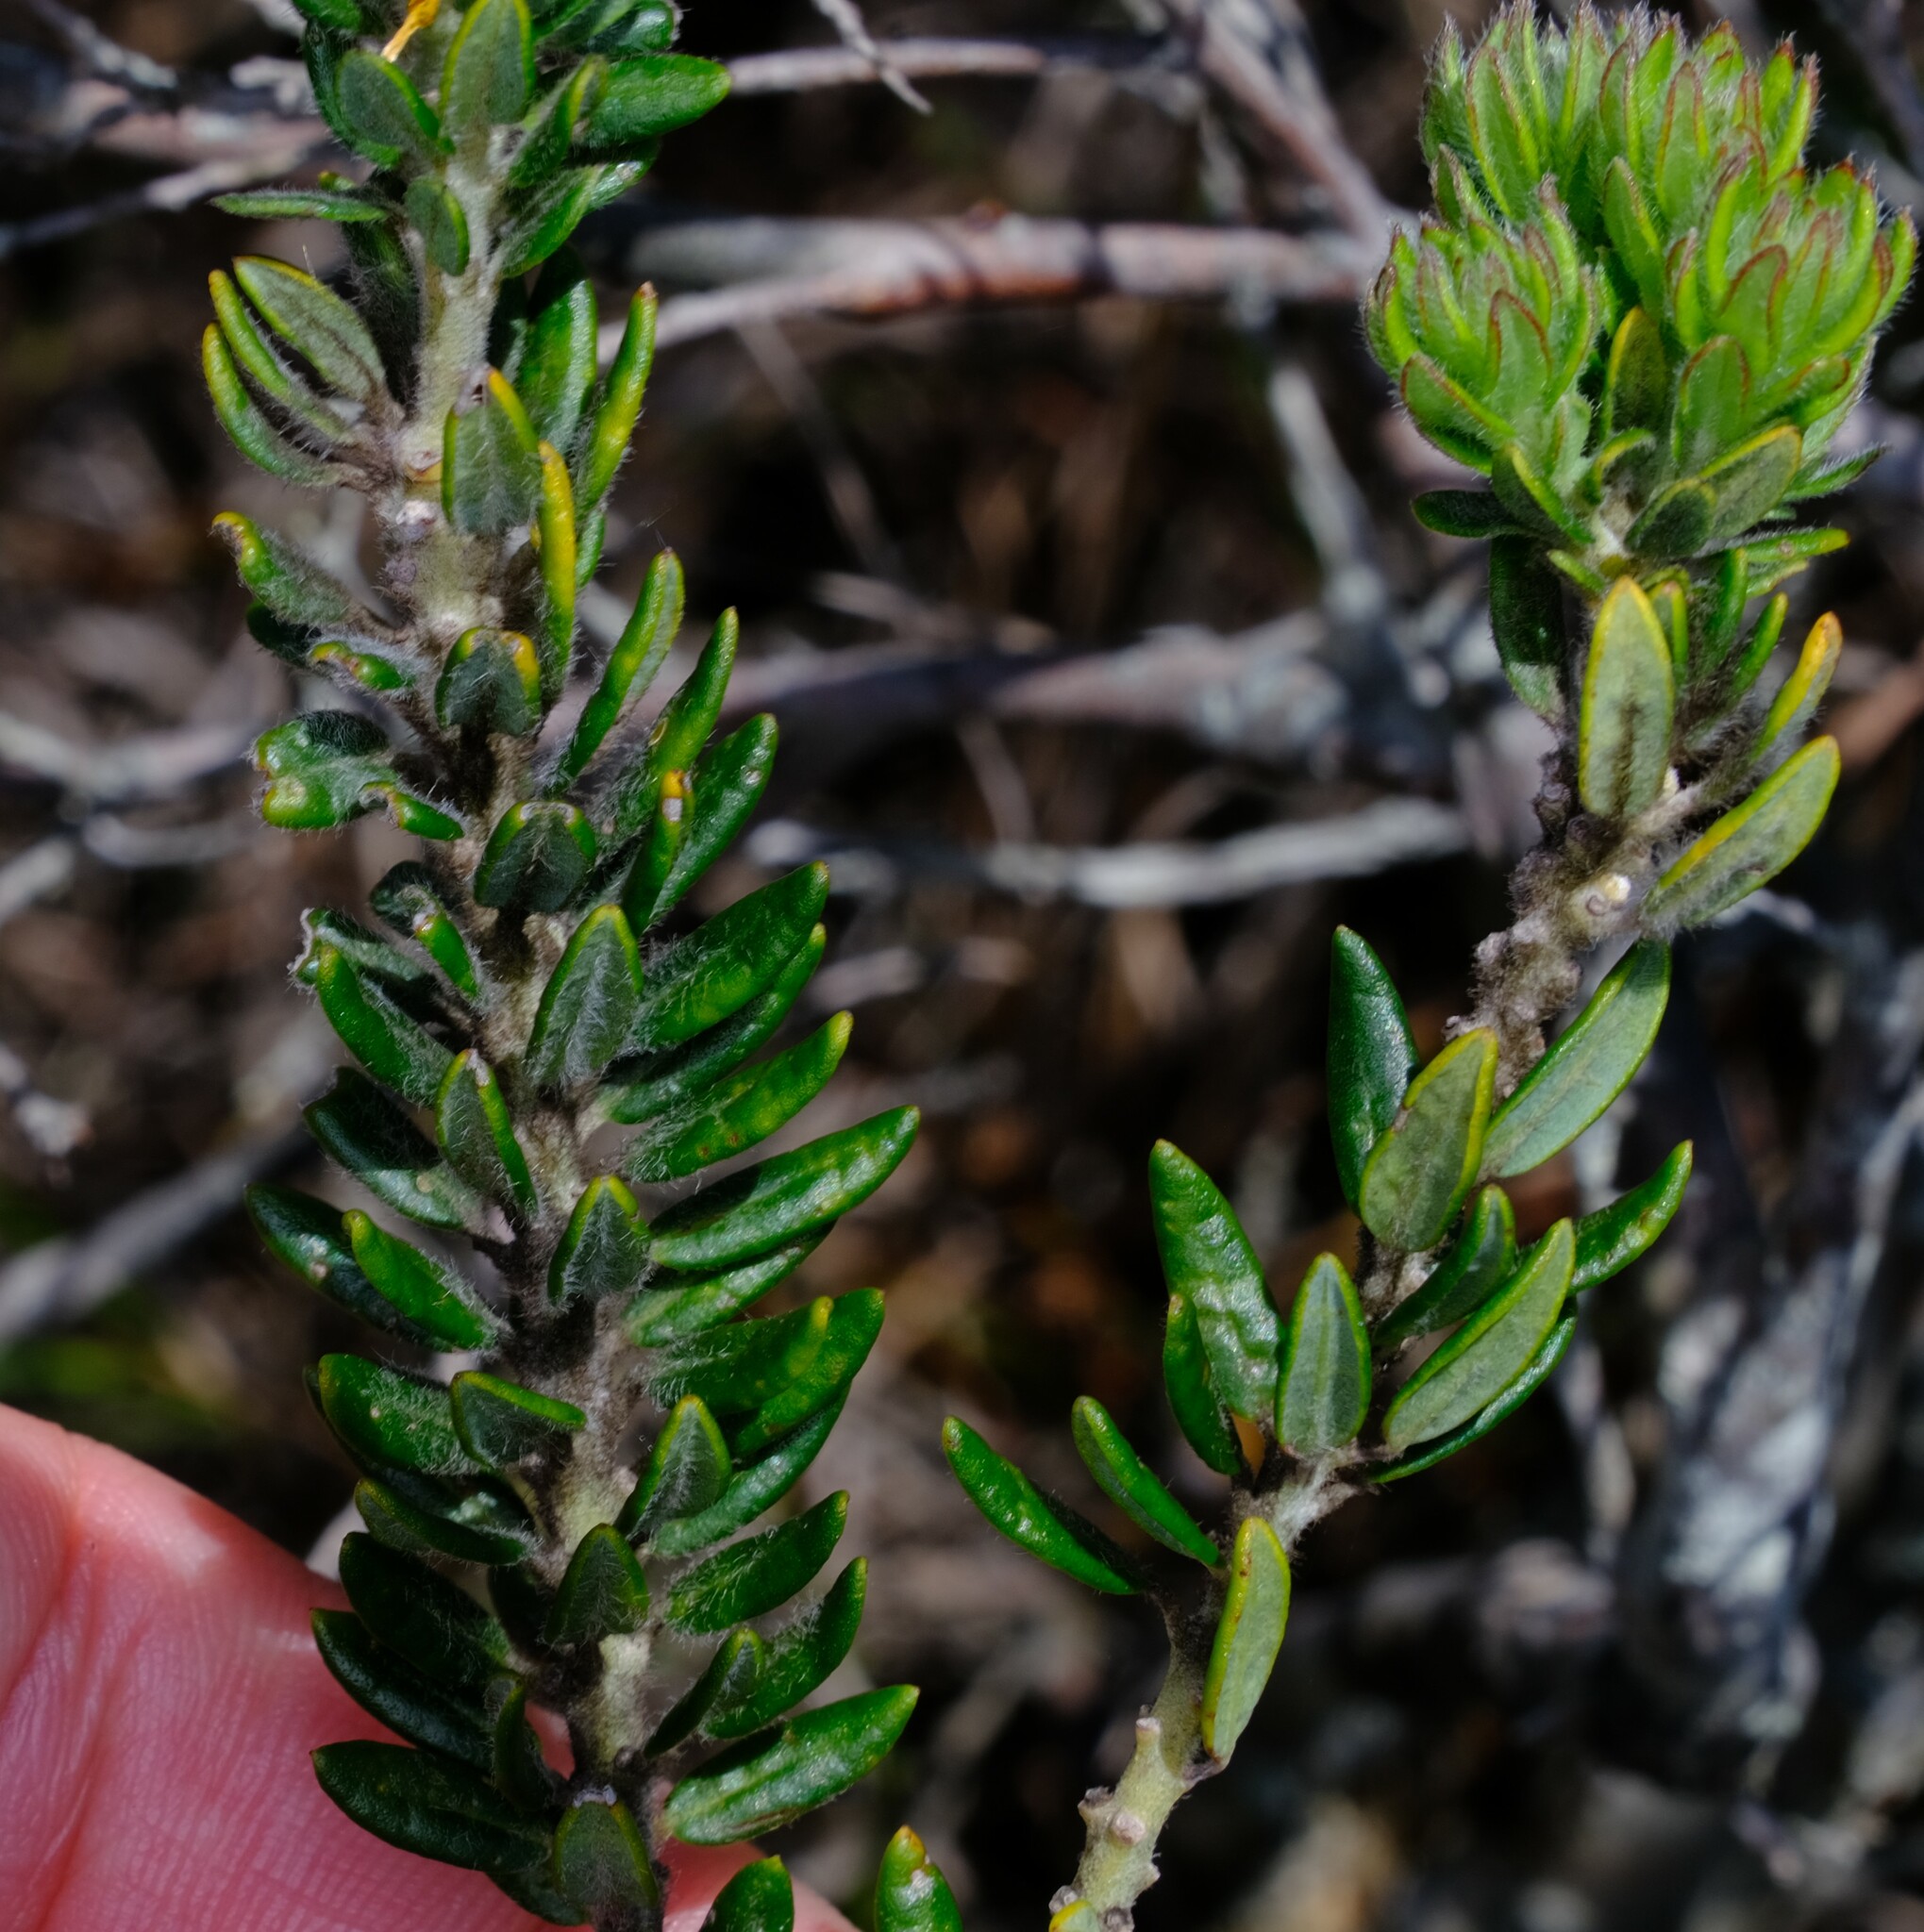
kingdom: Plantae
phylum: Tracheophyta
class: Magnoliopsida
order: Fabales
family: Fabaceae
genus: Aotus
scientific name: Aotus ericoides
